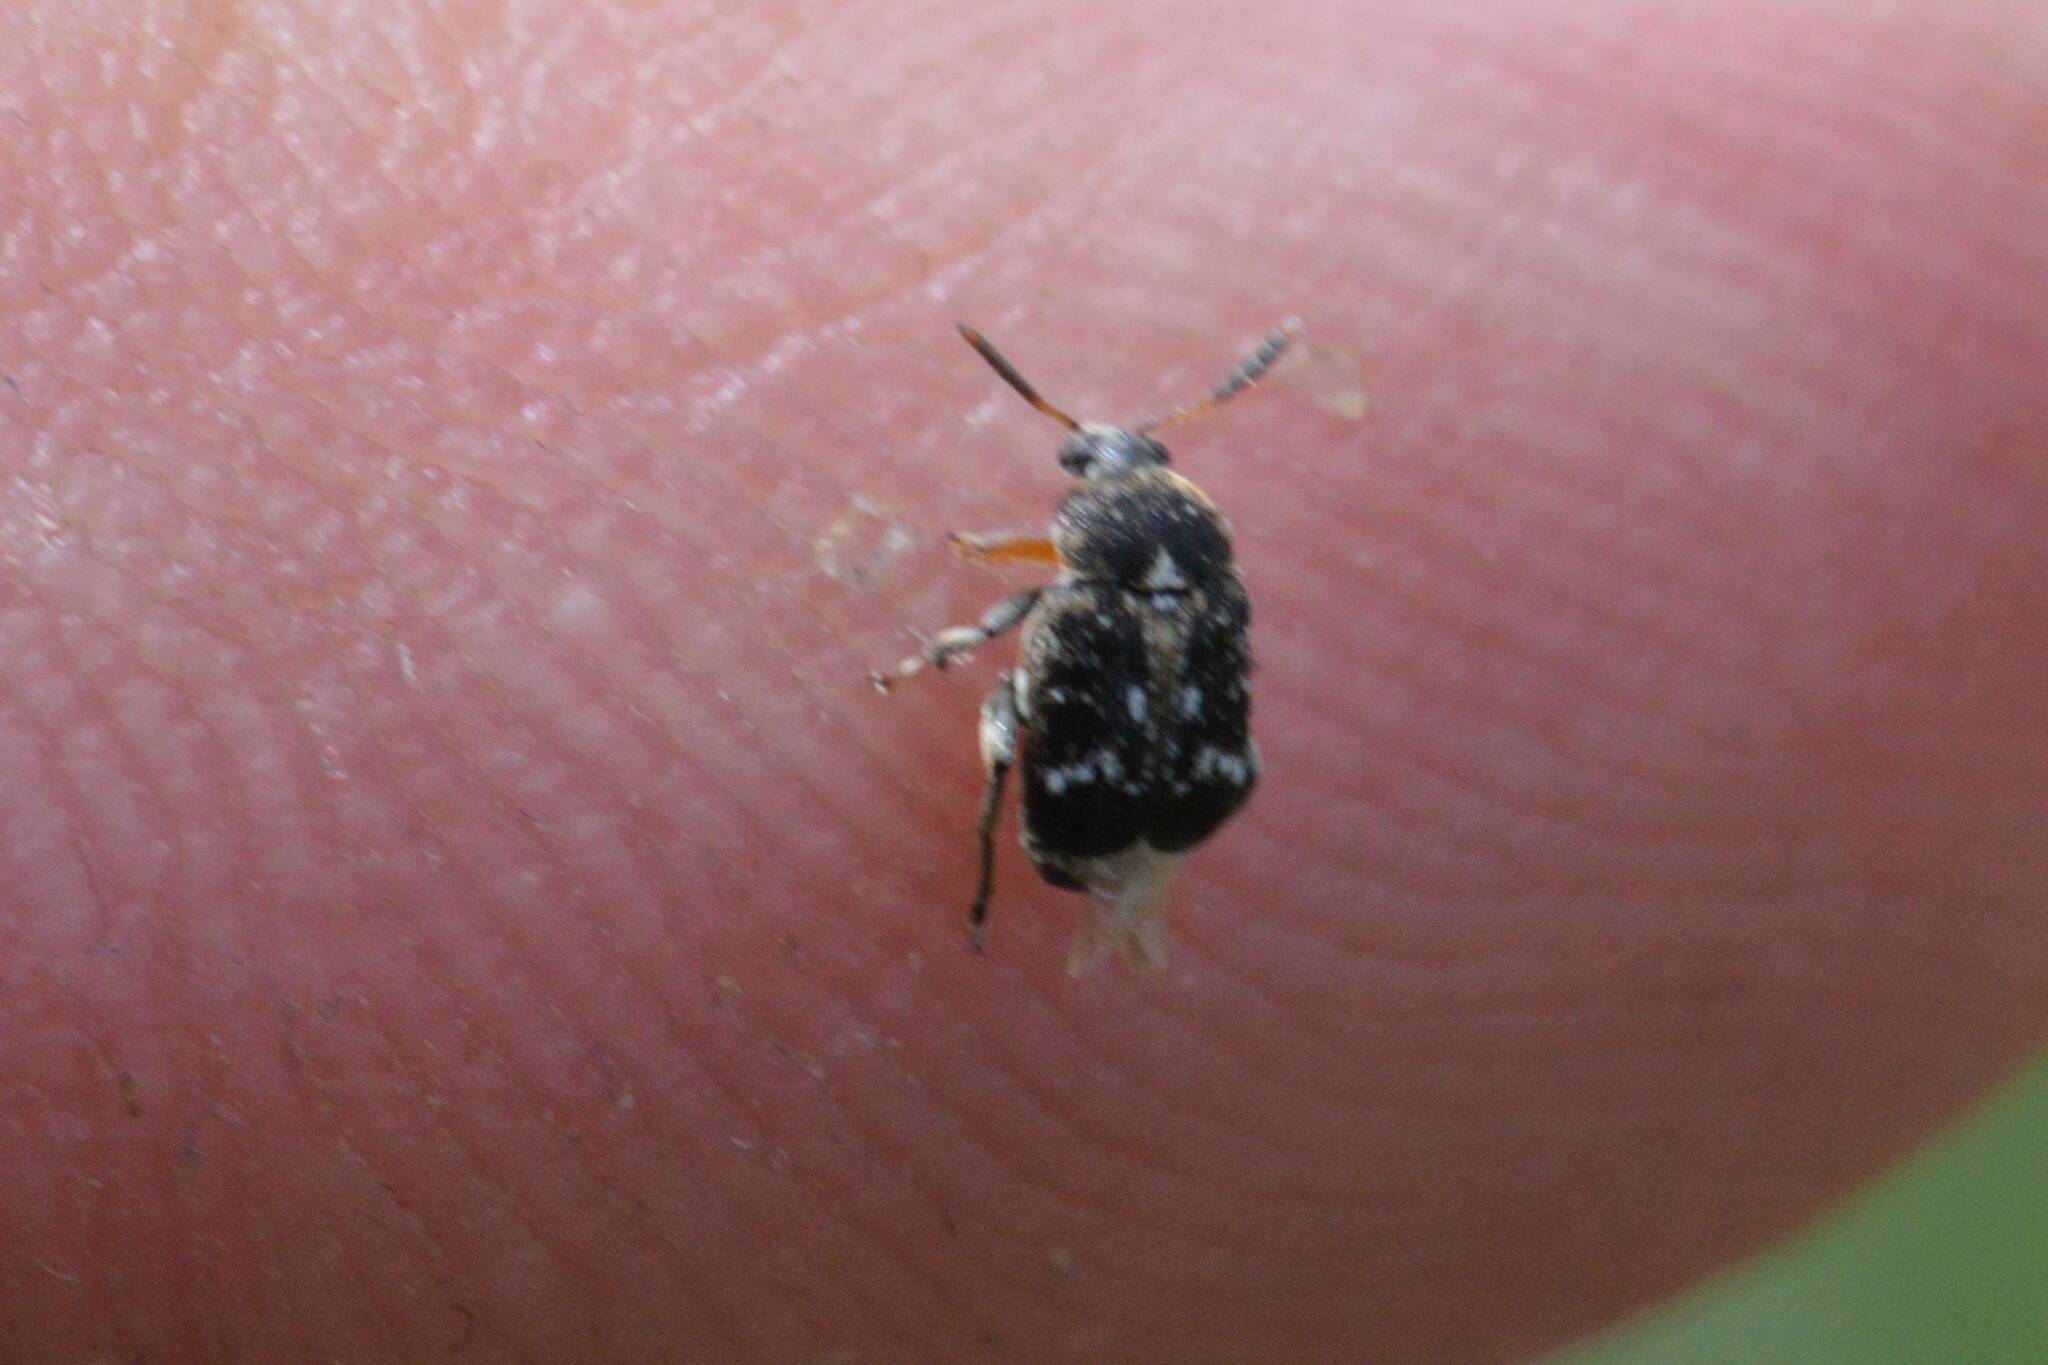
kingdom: Animalia
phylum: Arthropoda
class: Insecta
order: Coleoptera
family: Chrysomelidae
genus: Bruchus
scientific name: Bruchus pisorum
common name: Pea weevil
